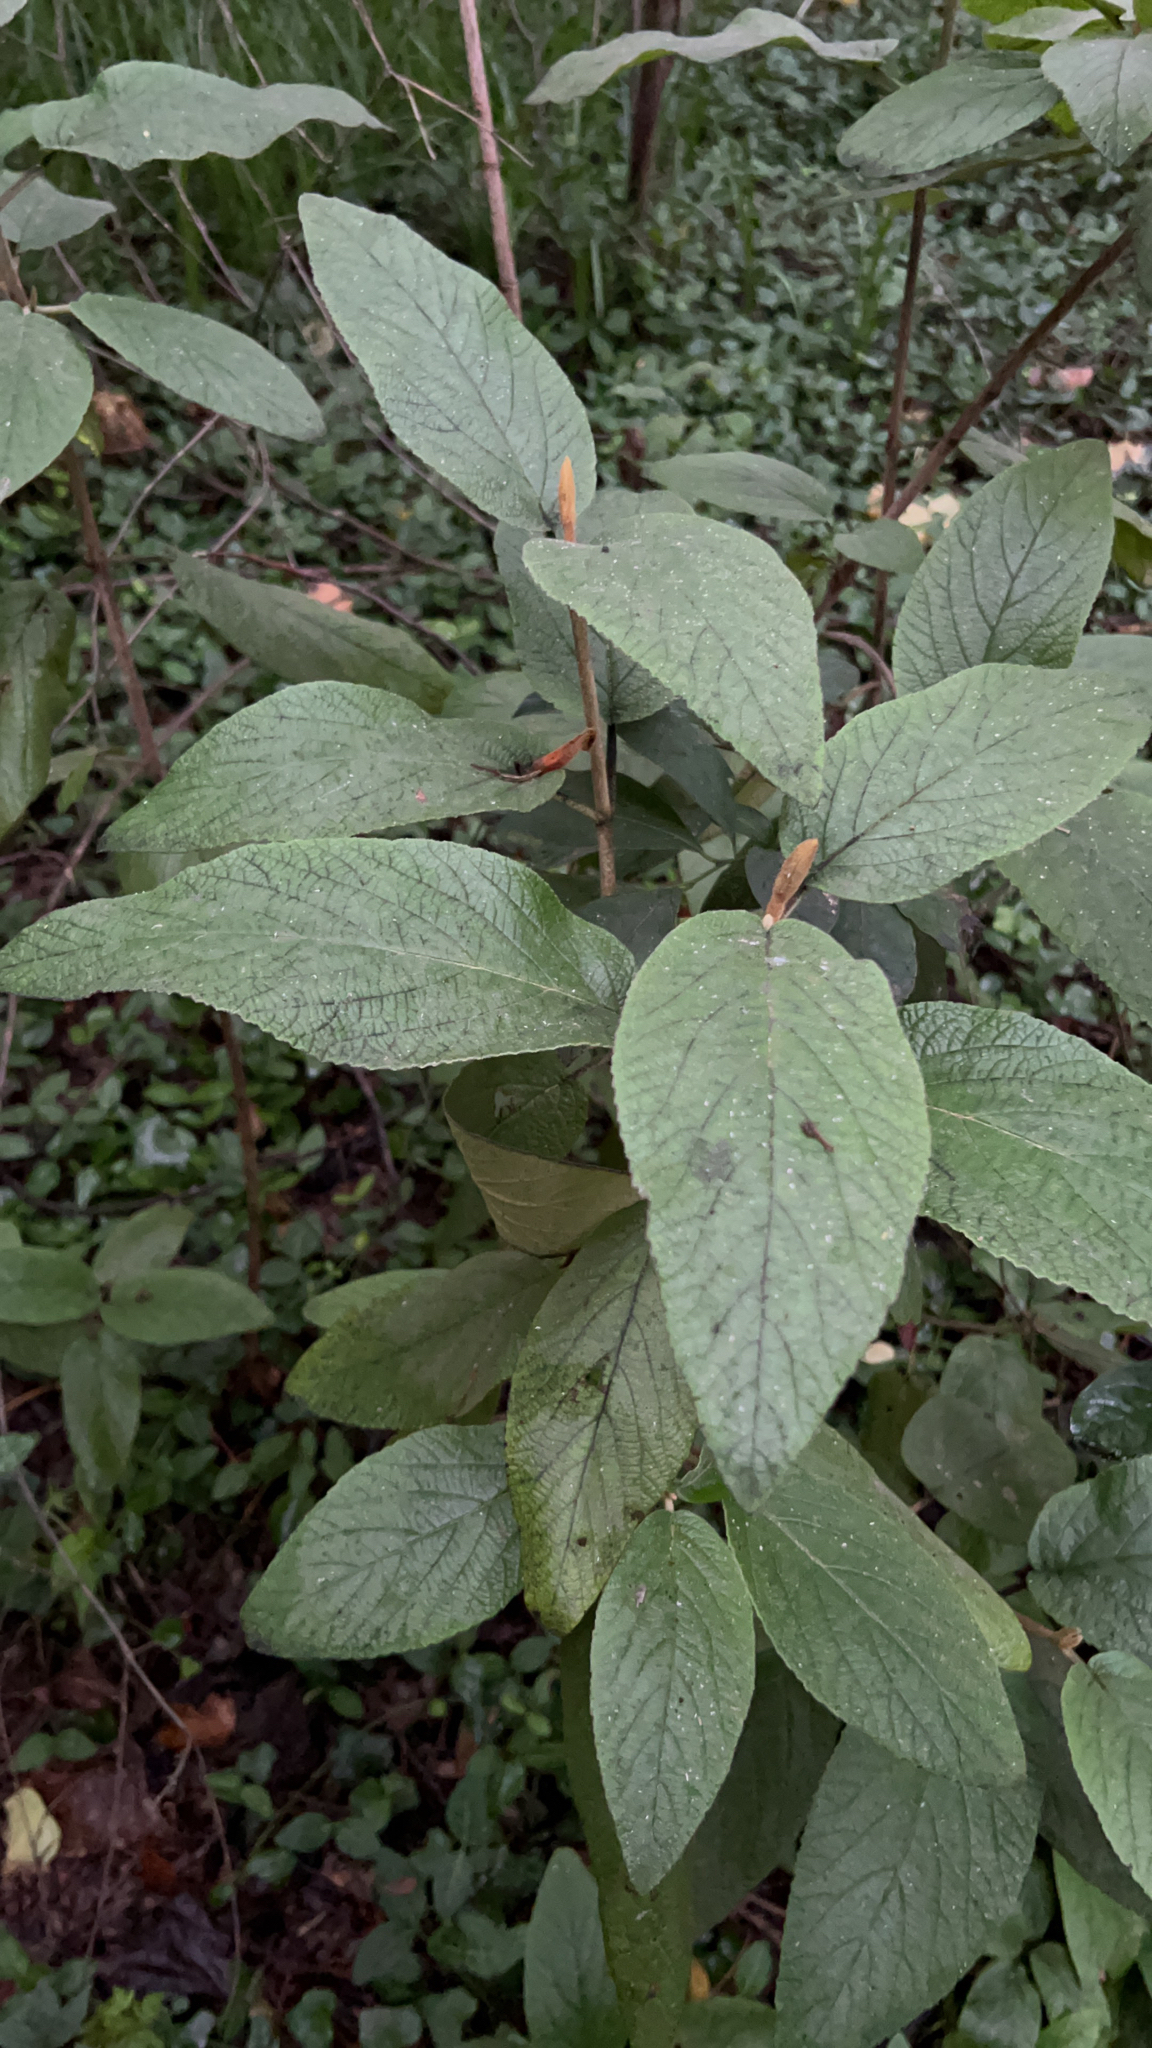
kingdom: Plantae
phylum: Tracheophyta
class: Magnoliopsida
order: Dipsacales
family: Viburnaceae
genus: Viburnum
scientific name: Viburnum rhytidophyllum
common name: Wrinkled viburnum
